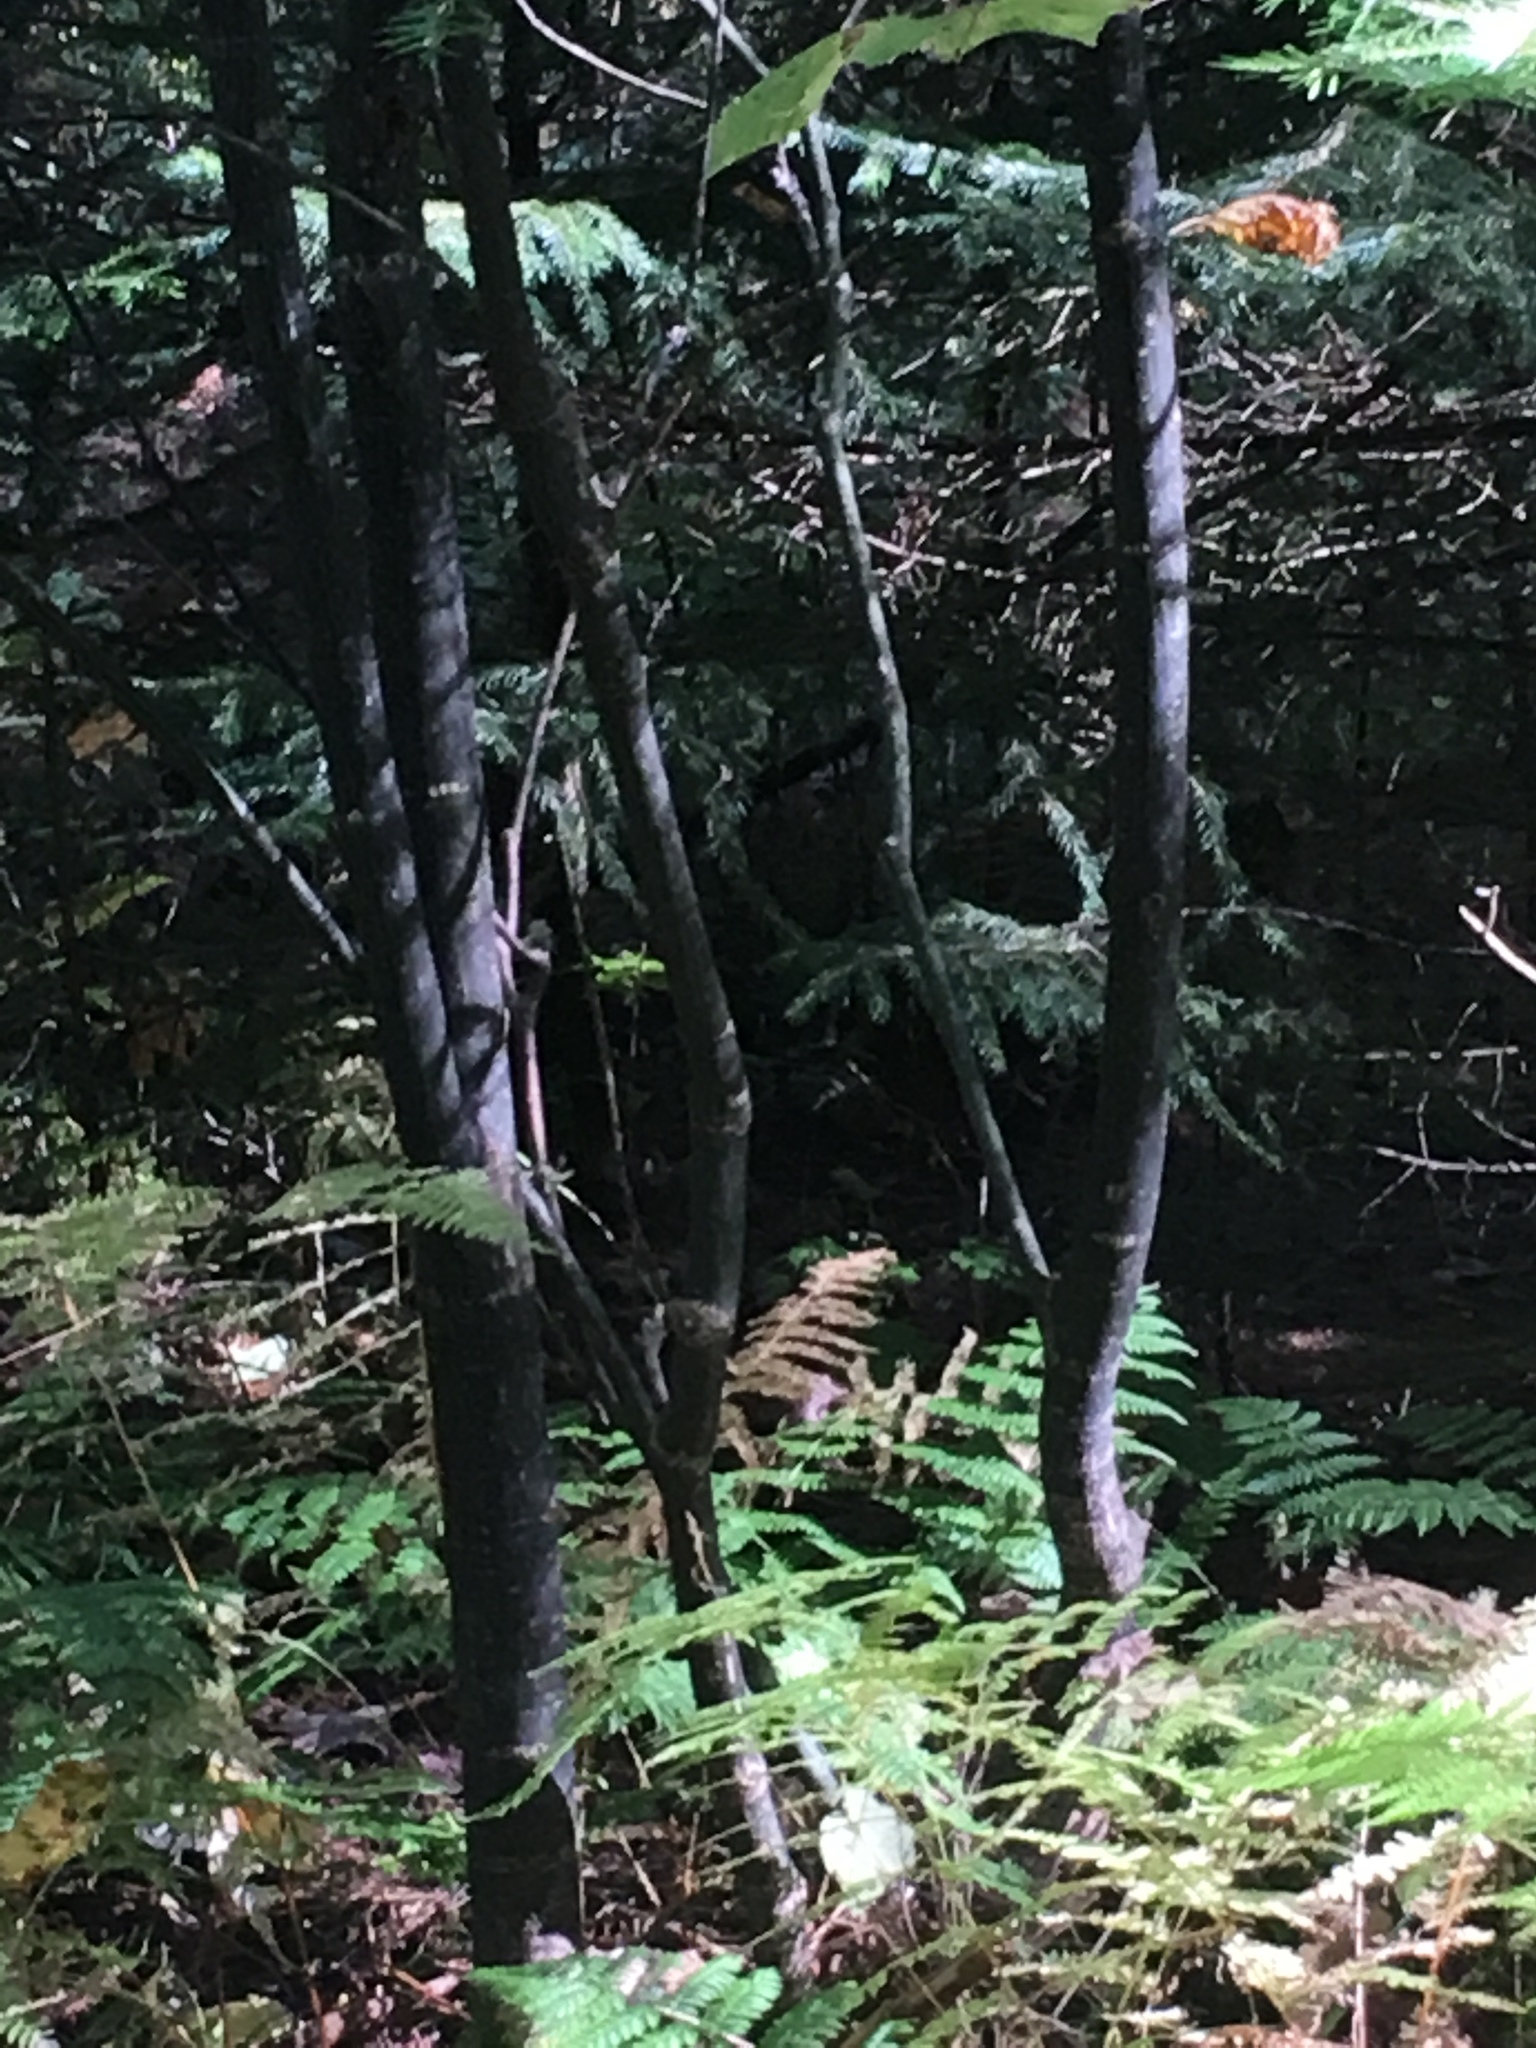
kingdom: Plantae
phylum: Tracheophyta
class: Magnoliopsida
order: Sapindales
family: Sapindaceae
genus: Acer
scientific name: Acer pensylvanicum
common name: Moosewood
